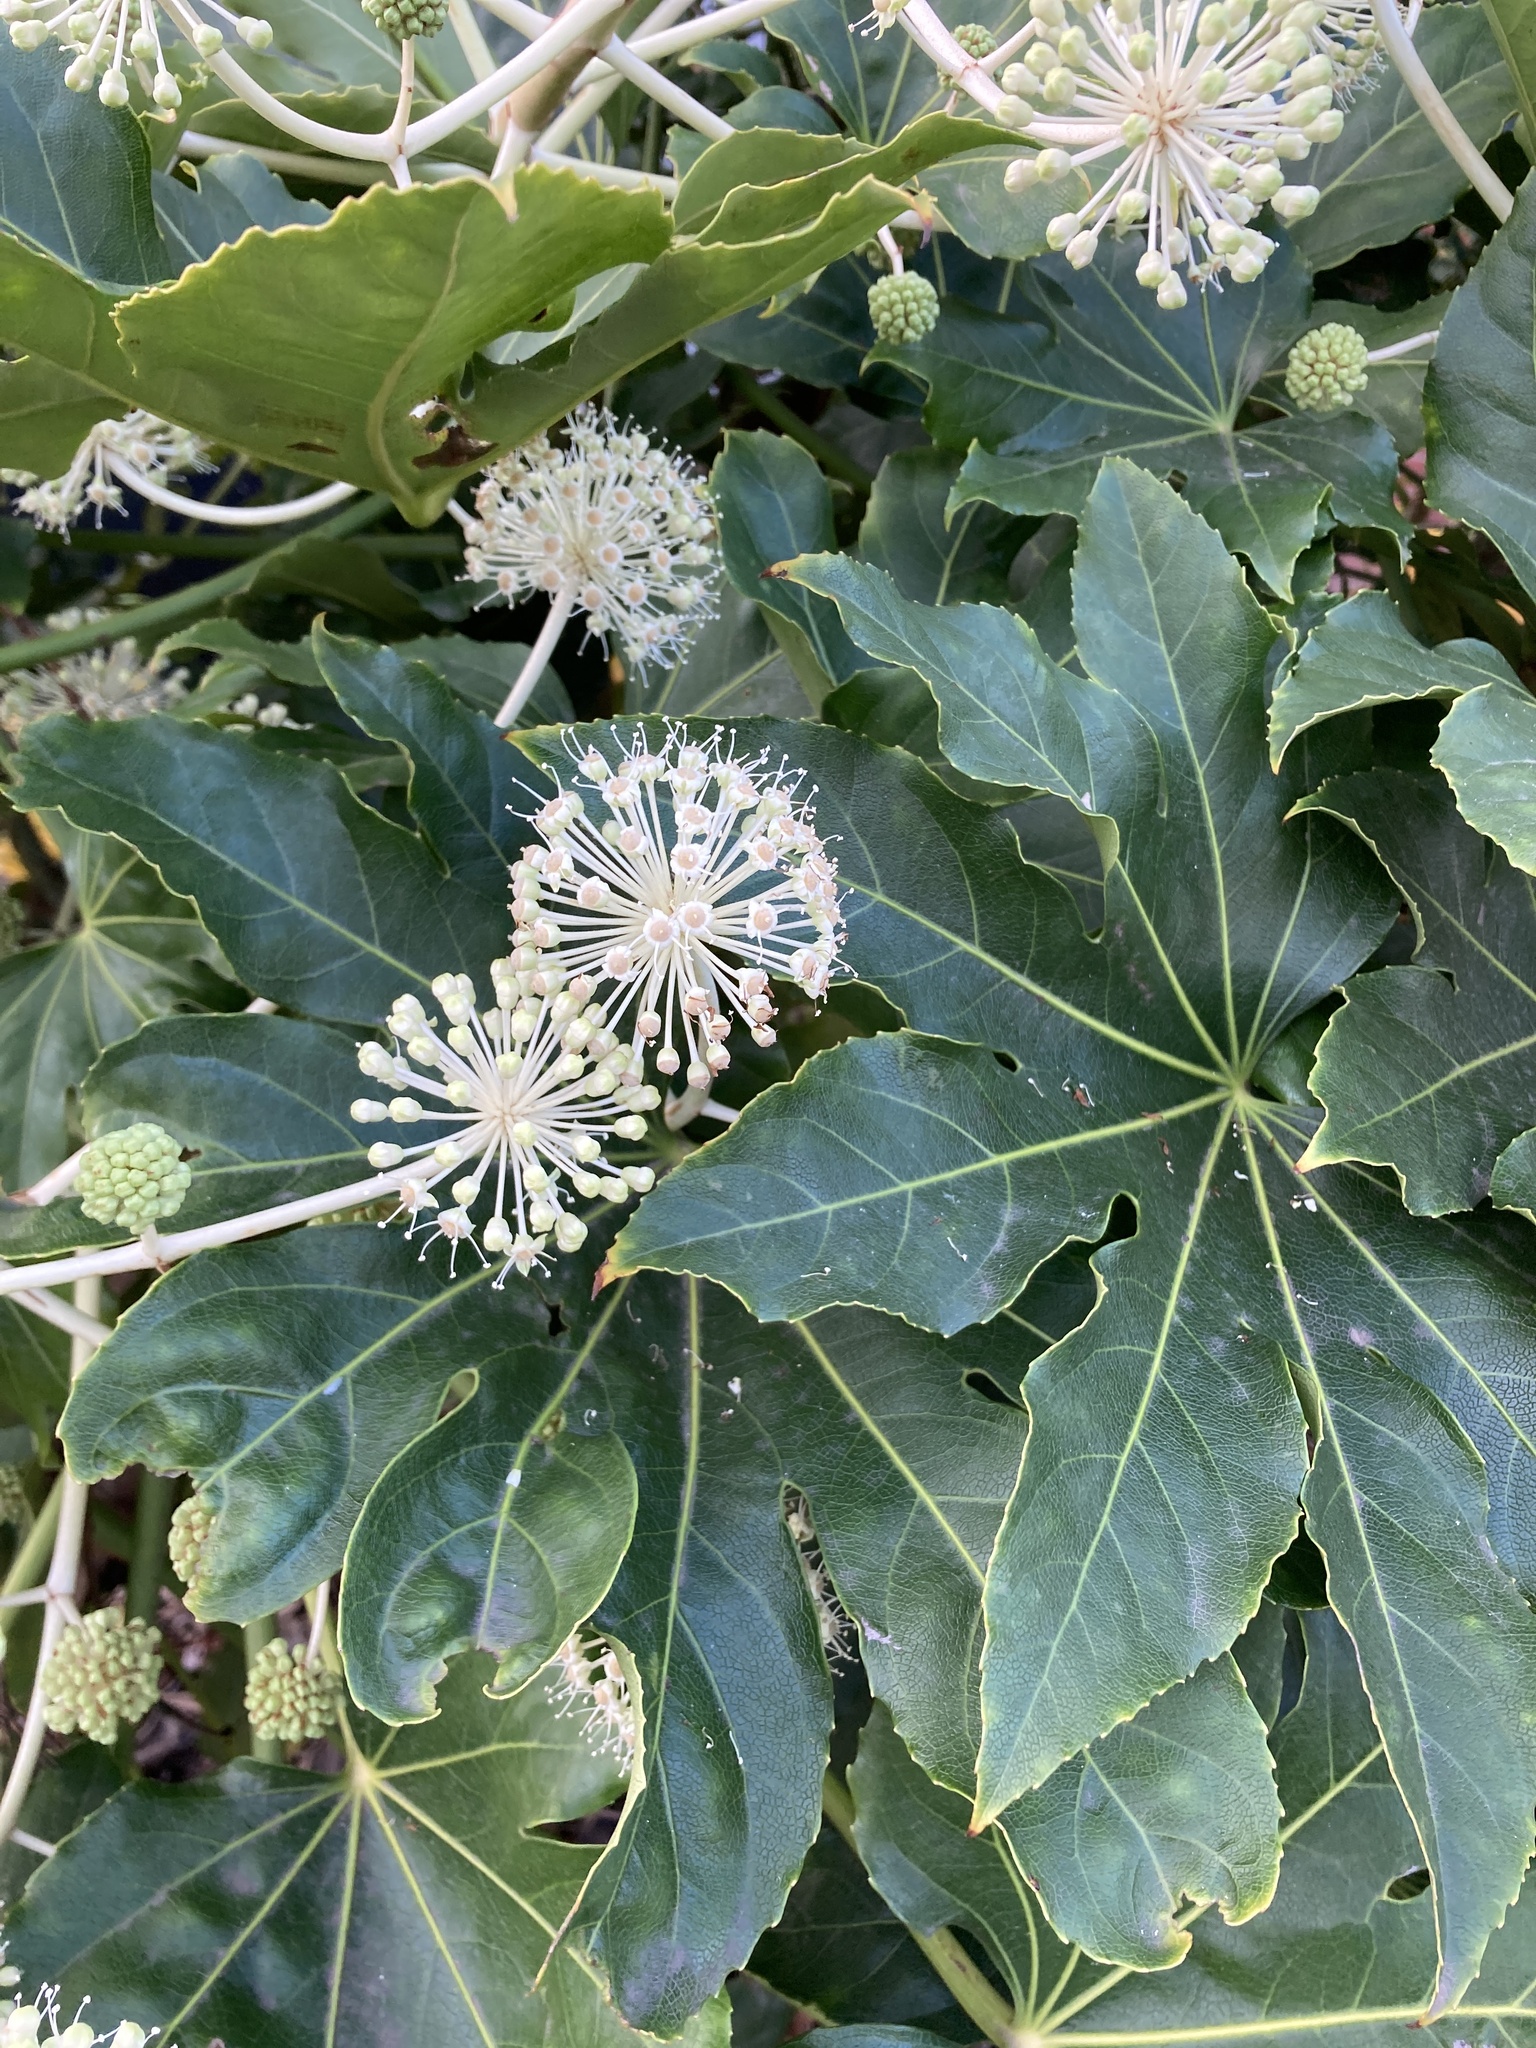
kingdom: Plantae
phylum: Tracheophyta
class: Magnoliopsida
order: Apiales
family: Araliaceae
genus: Fatsia
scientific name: Fatsia japonica
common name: Fatsia
